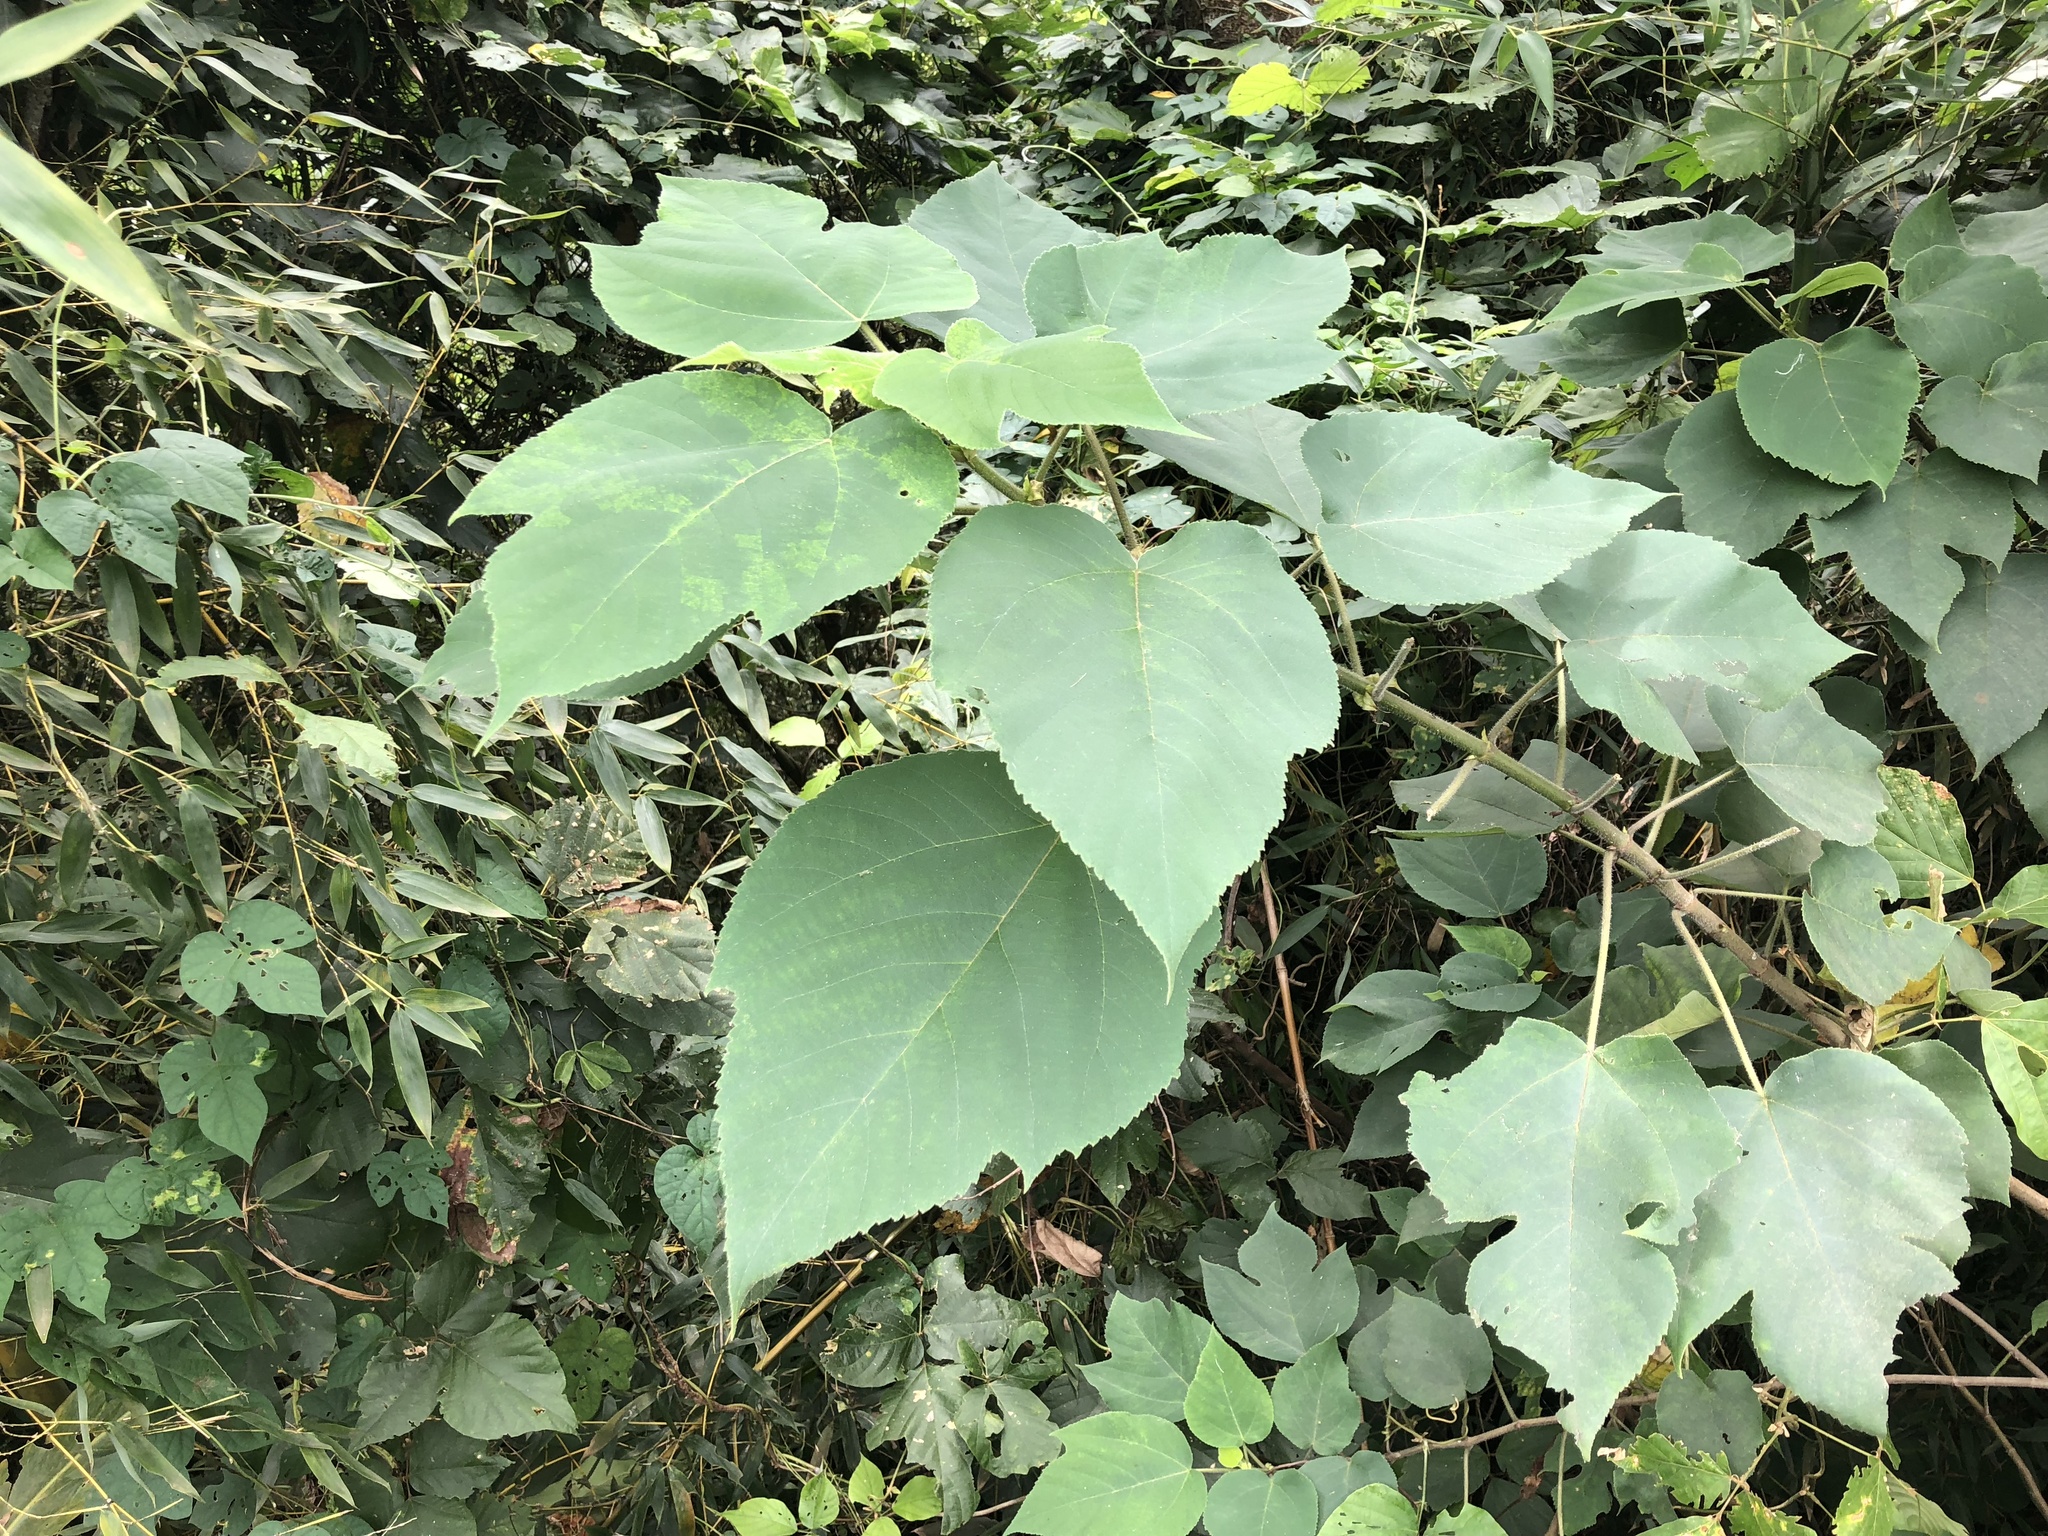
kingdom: Plantae
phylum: Tracheophyta
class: Magnoliopsida
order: Rosales
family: Moraceae
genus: Broussonetia
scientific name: Broussonetia papyrifera
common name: Paper mulberry
